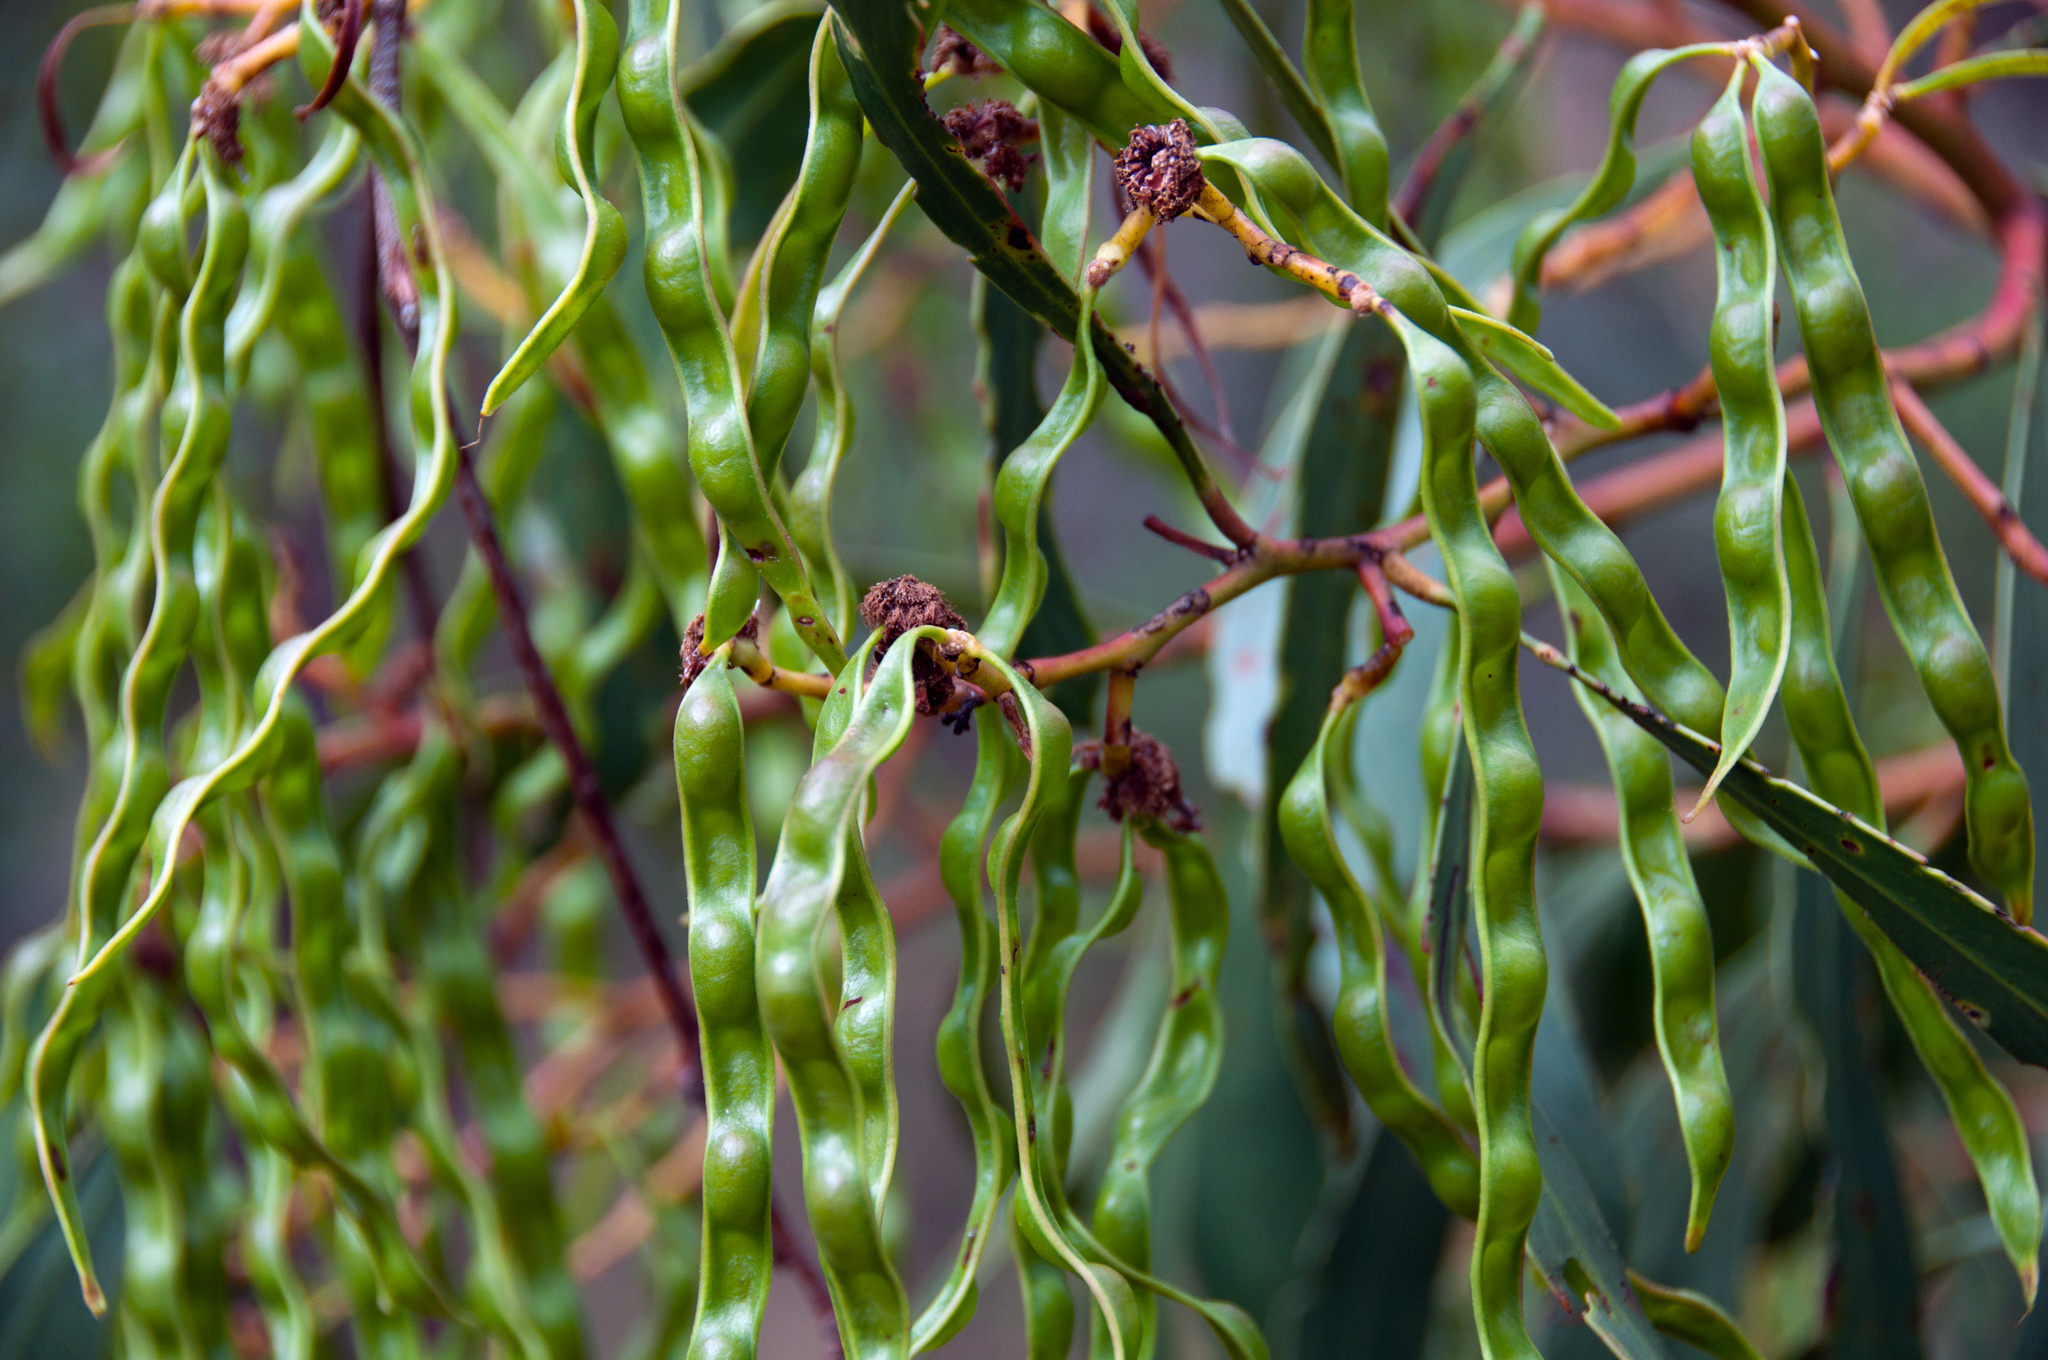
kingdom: Plantae
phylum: Tracheophyta
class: Magnoliopsida
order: Fabales
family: Fabaceae
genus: Acacia
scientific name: Acacia pycnantha
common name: Golden wattle
